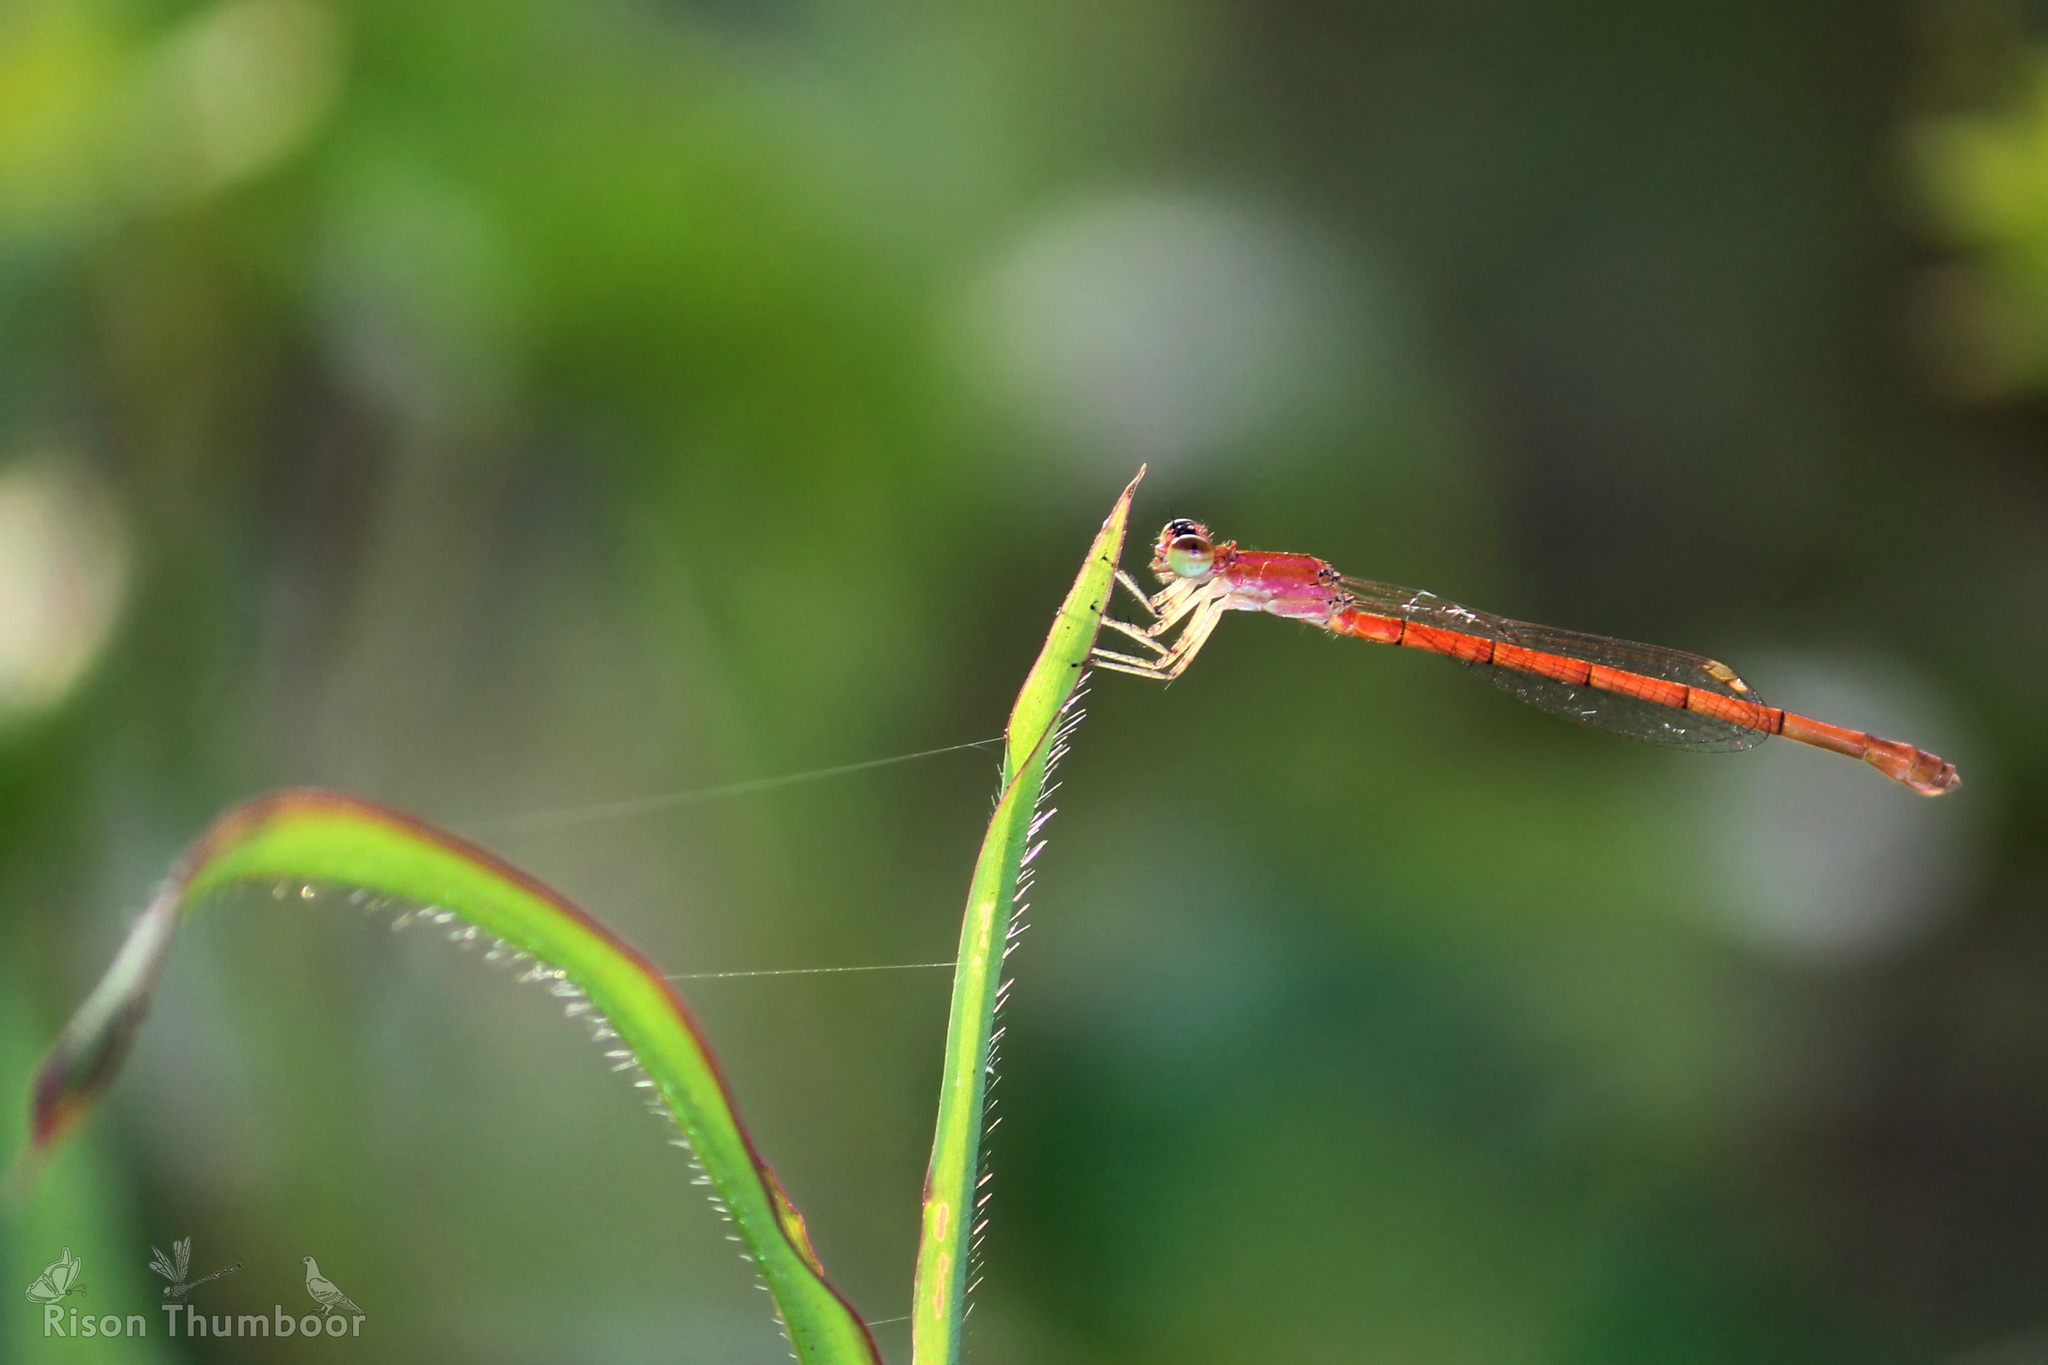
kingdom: Animalia
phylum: Arthropoda
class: Insecta
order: Odonata
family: Coenagrionidae
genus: Agriocnemis
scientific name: Agriocnemis keralensis
